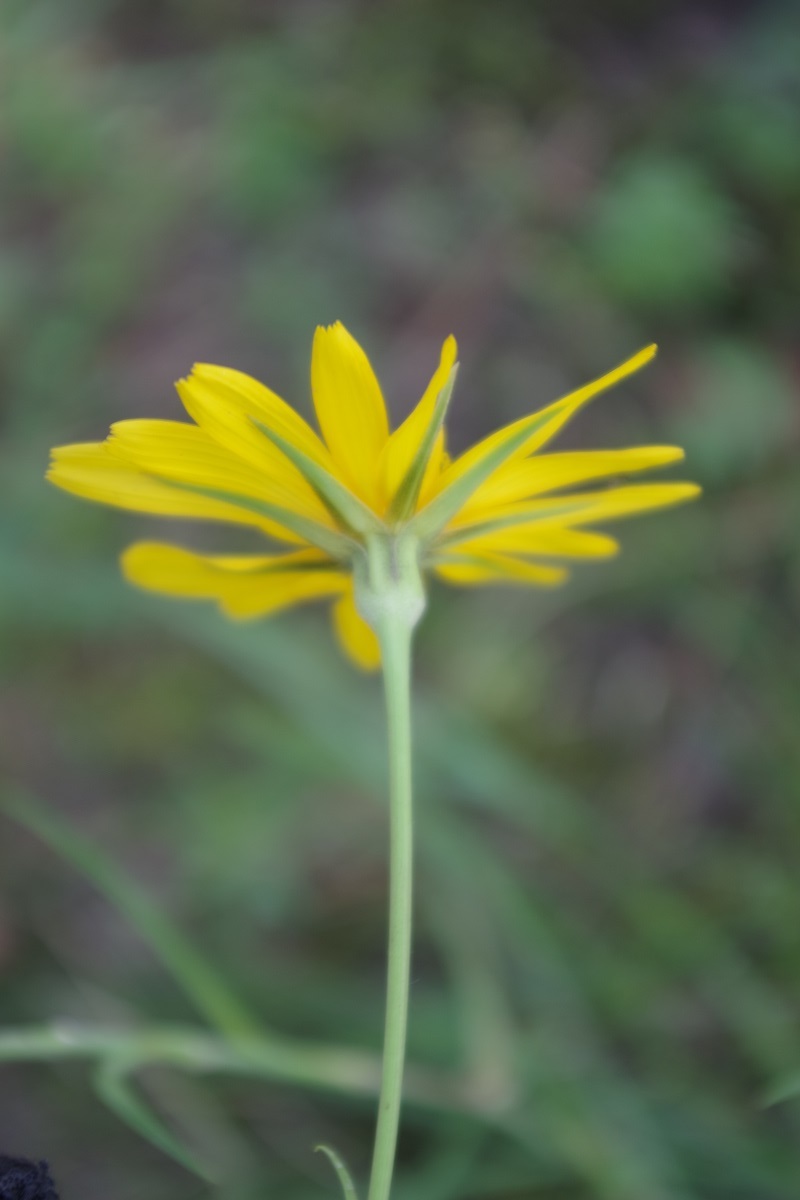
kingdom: Plantae
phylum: Tracheophyta
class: Magnoliopsida
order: Asterales
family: Asteraceae
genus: Tragopogon
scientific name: Tragopogon orientalis
